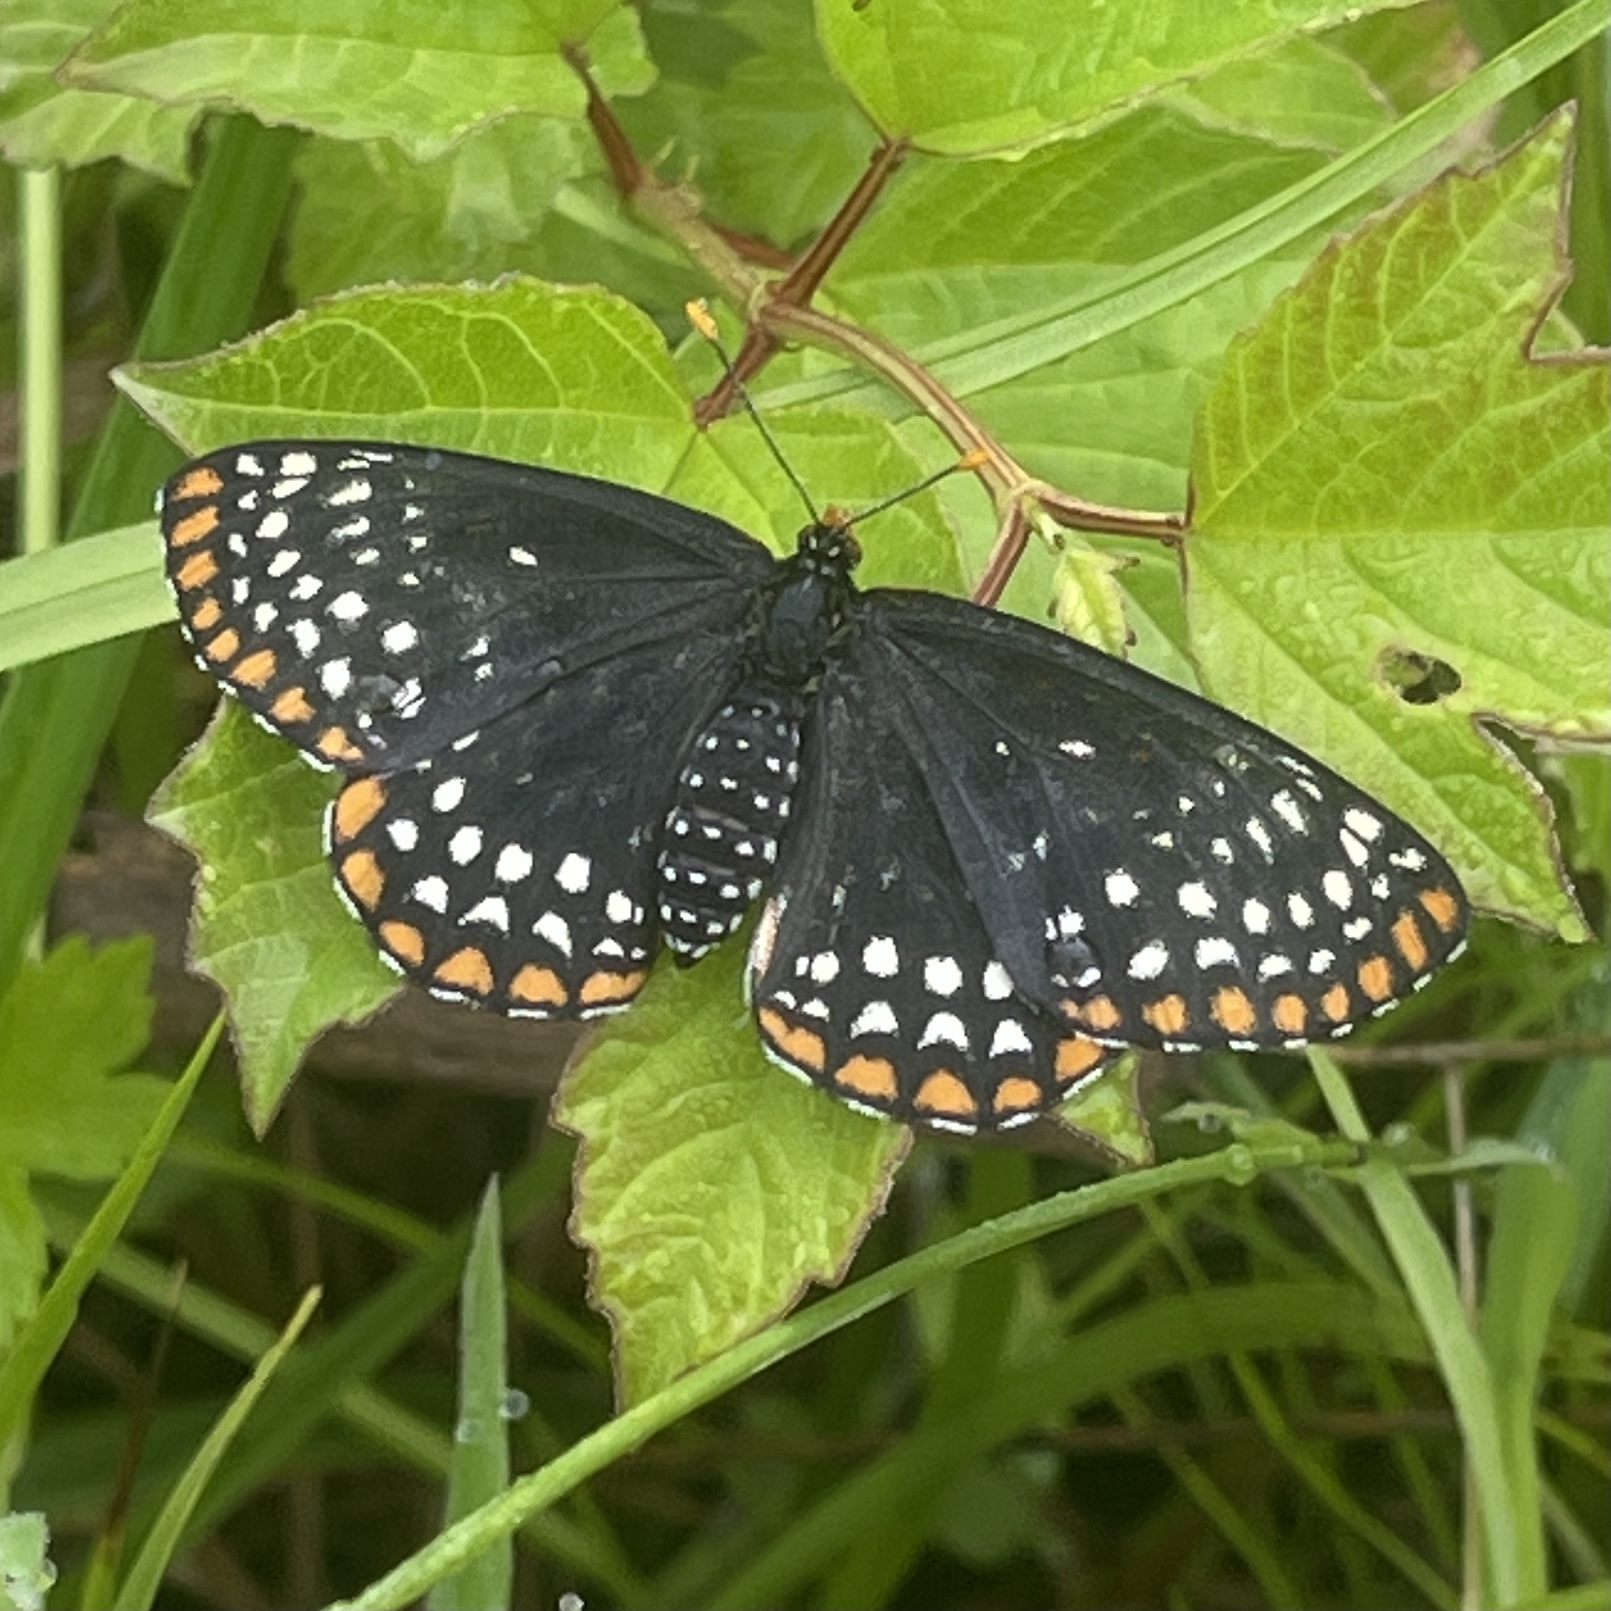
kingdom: Animalia
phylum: Arthropoda
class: Insecta
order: Lepidoptera
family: Nymphalidae
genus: Euphydryas
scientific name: Euphydryas phaeton
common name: Baltimore checkerspot
